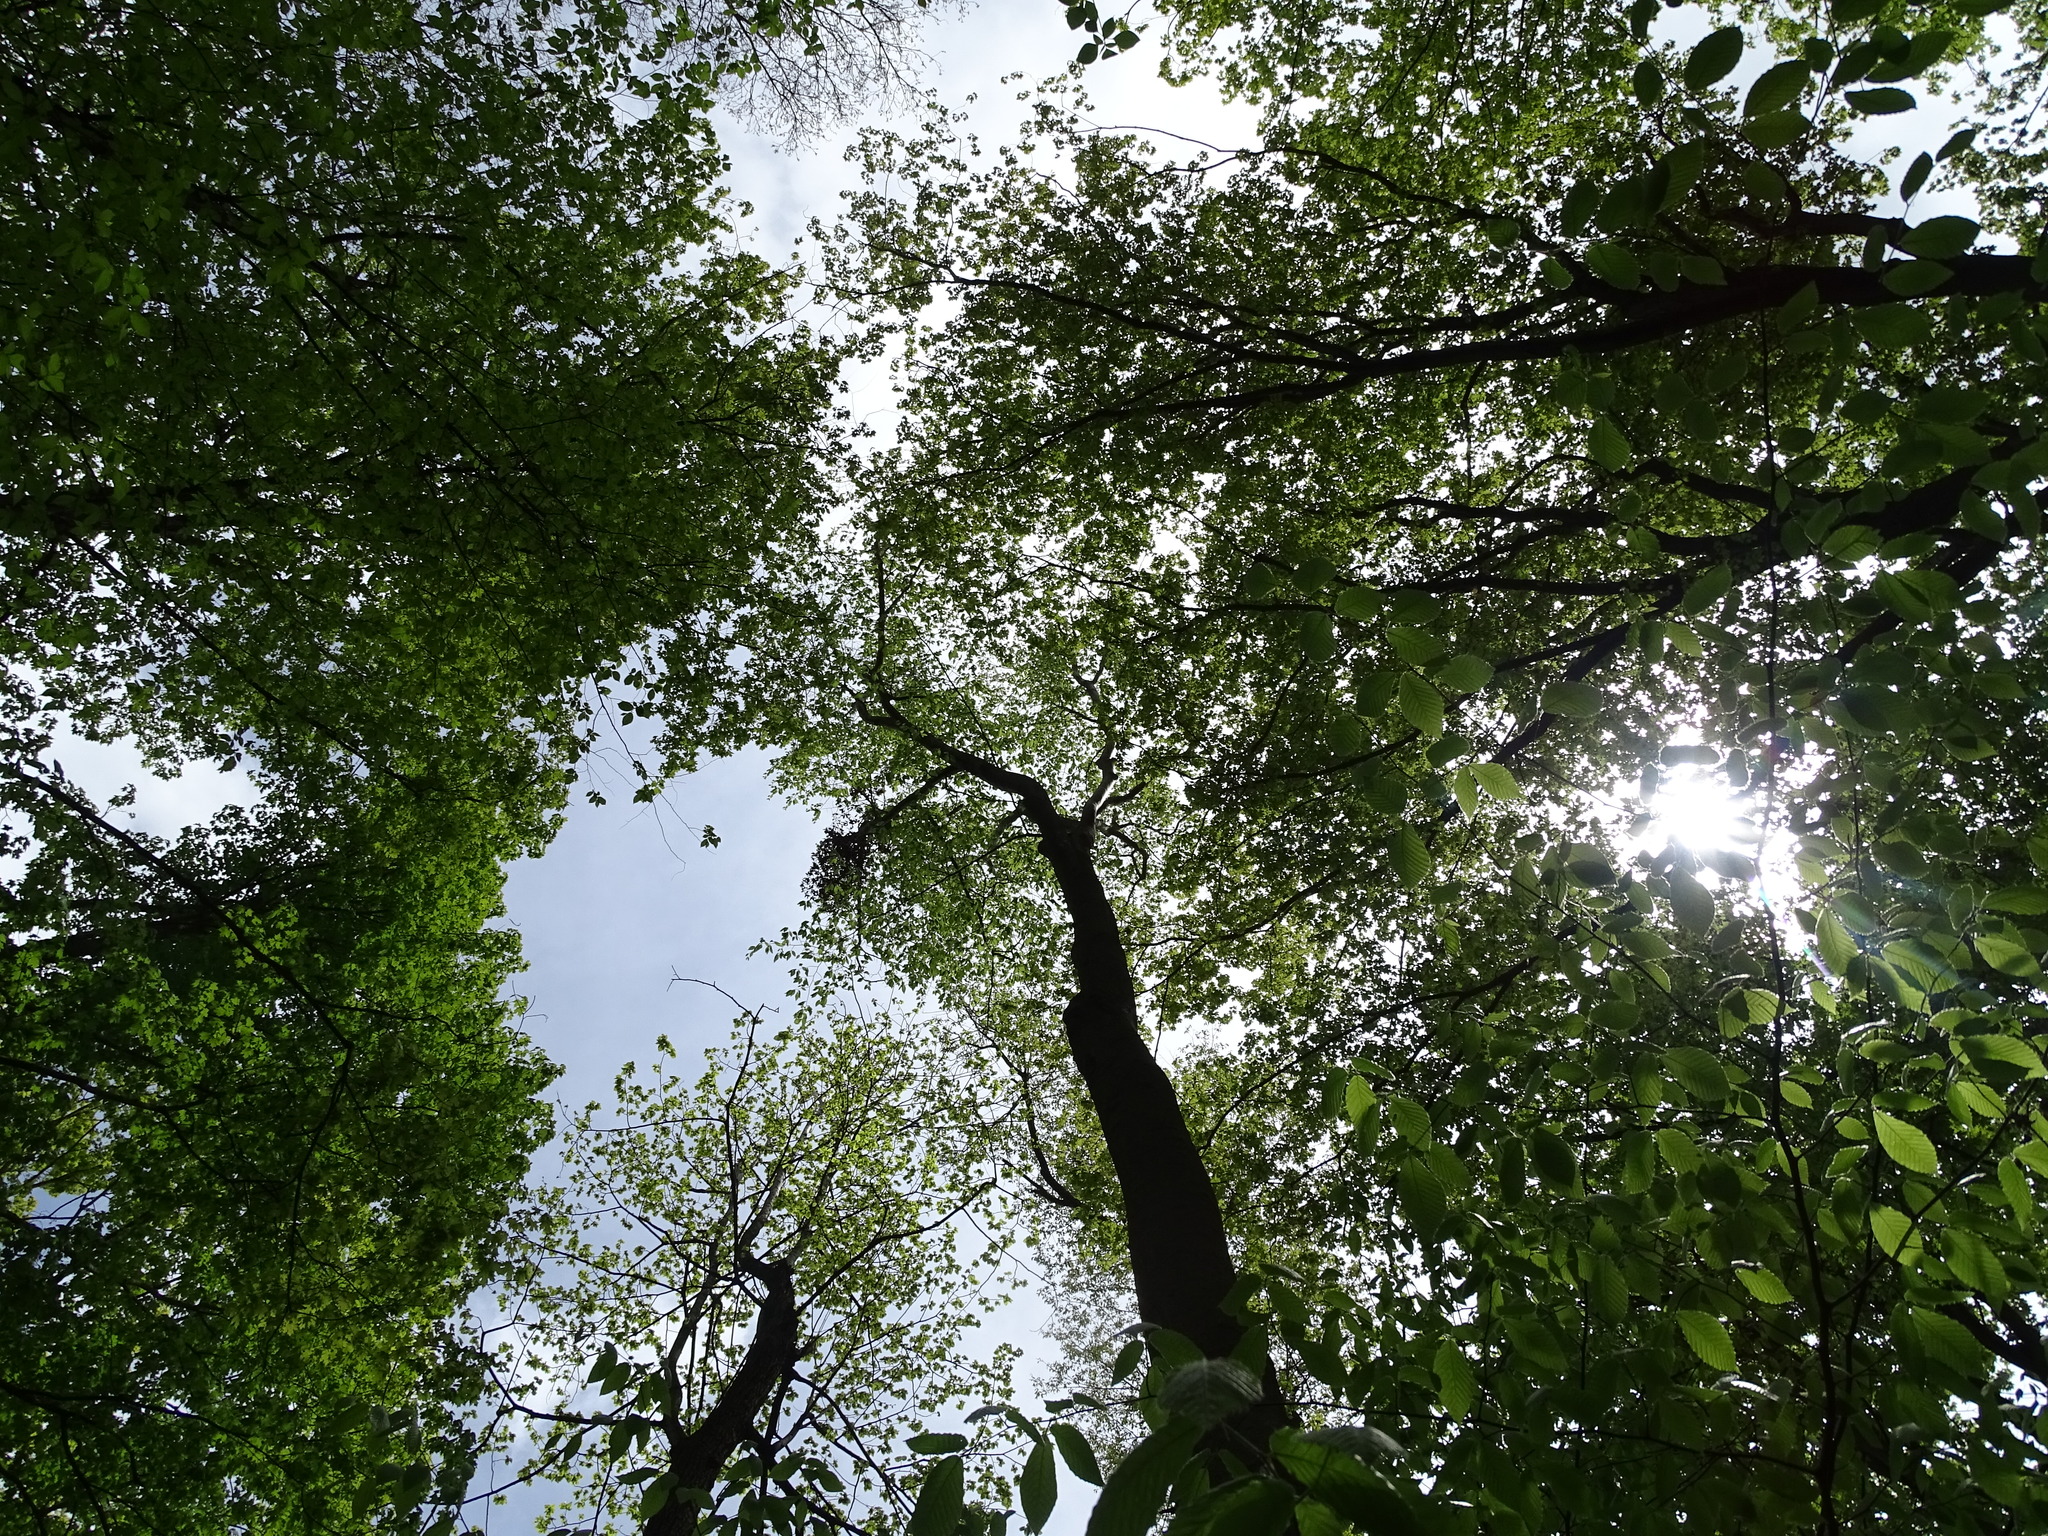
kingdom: Plantae
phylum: Tracheophyta
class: Magnoliopsida
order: Fagales
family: Fagaceae
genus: Fagus
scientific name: Fagus grandifolia
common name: American beech
